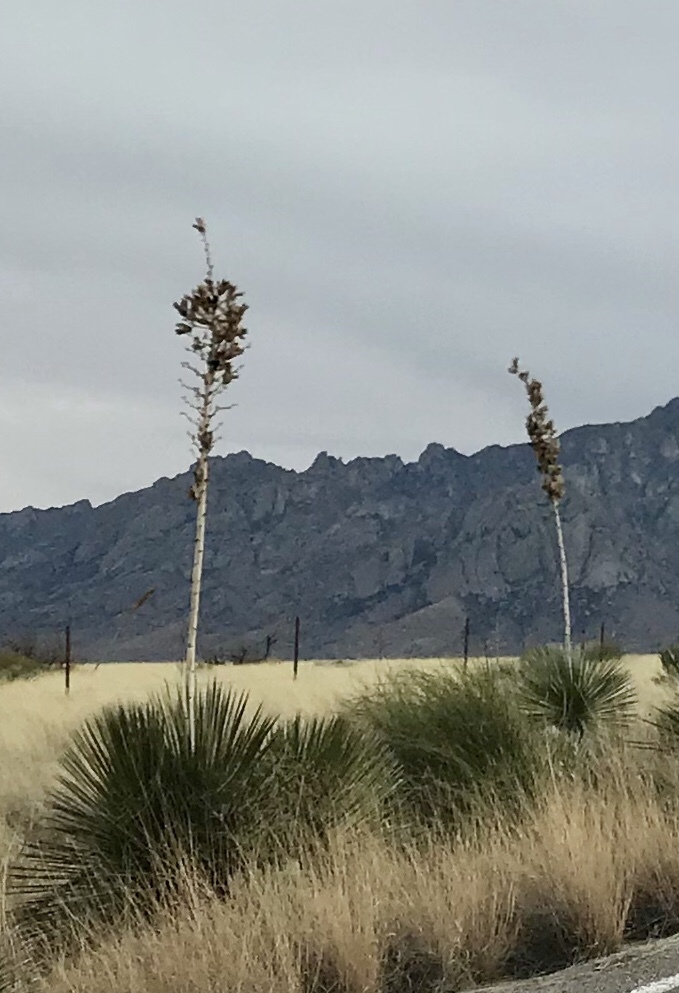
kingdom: Plantae
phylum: Tracheophyta
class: Liliopsida
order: Asparagales
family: Asparagaceae
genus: Yucca
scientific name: Yucca elata
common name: Palmella
